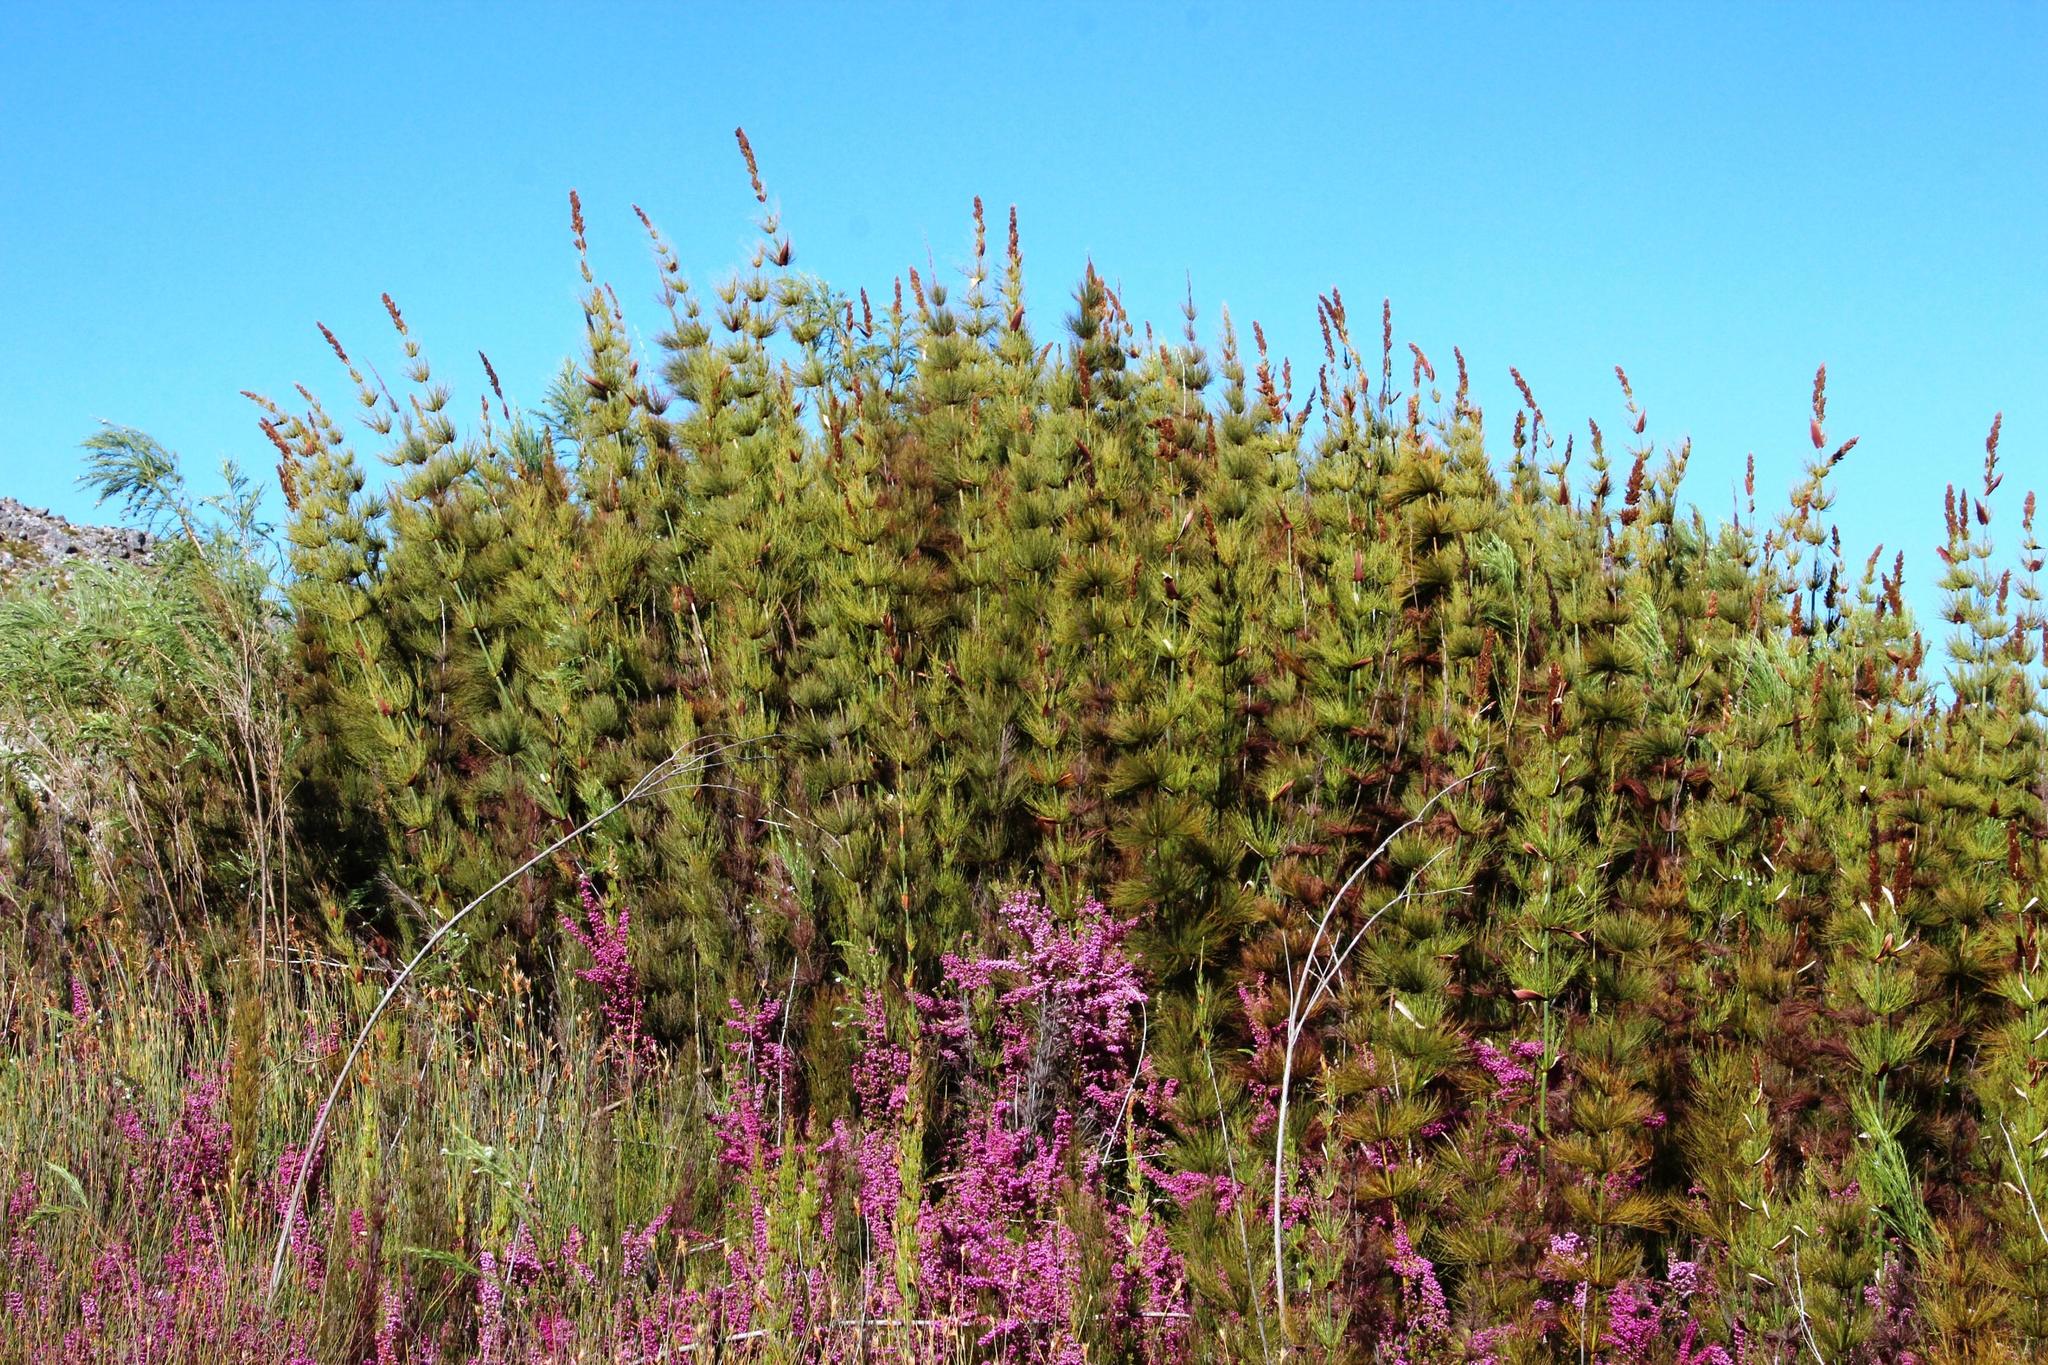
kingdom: Plantae
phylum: Tracheophyta
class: Liliopsida
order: Poales
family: Restionaceae
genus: Elegia
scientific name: Elegia capensis
